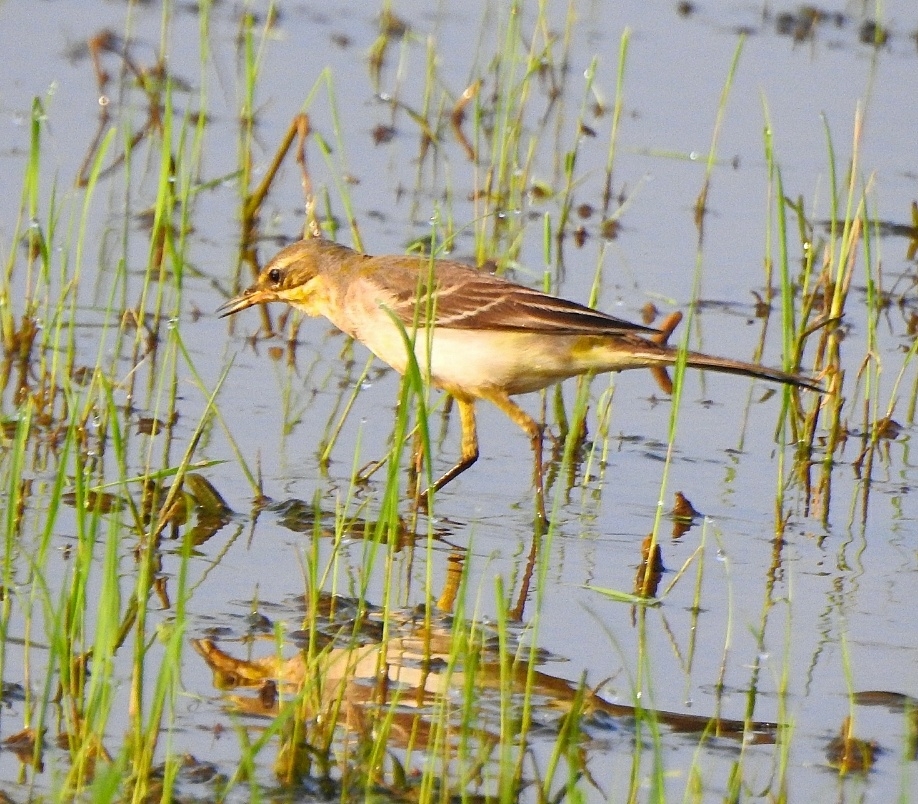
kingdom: Animalia
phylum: Chordata
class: Aves
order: Passeriformes
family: Motacillidae
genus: Motacilla
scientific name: Motacilla flava
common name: Western yellow wagtail
